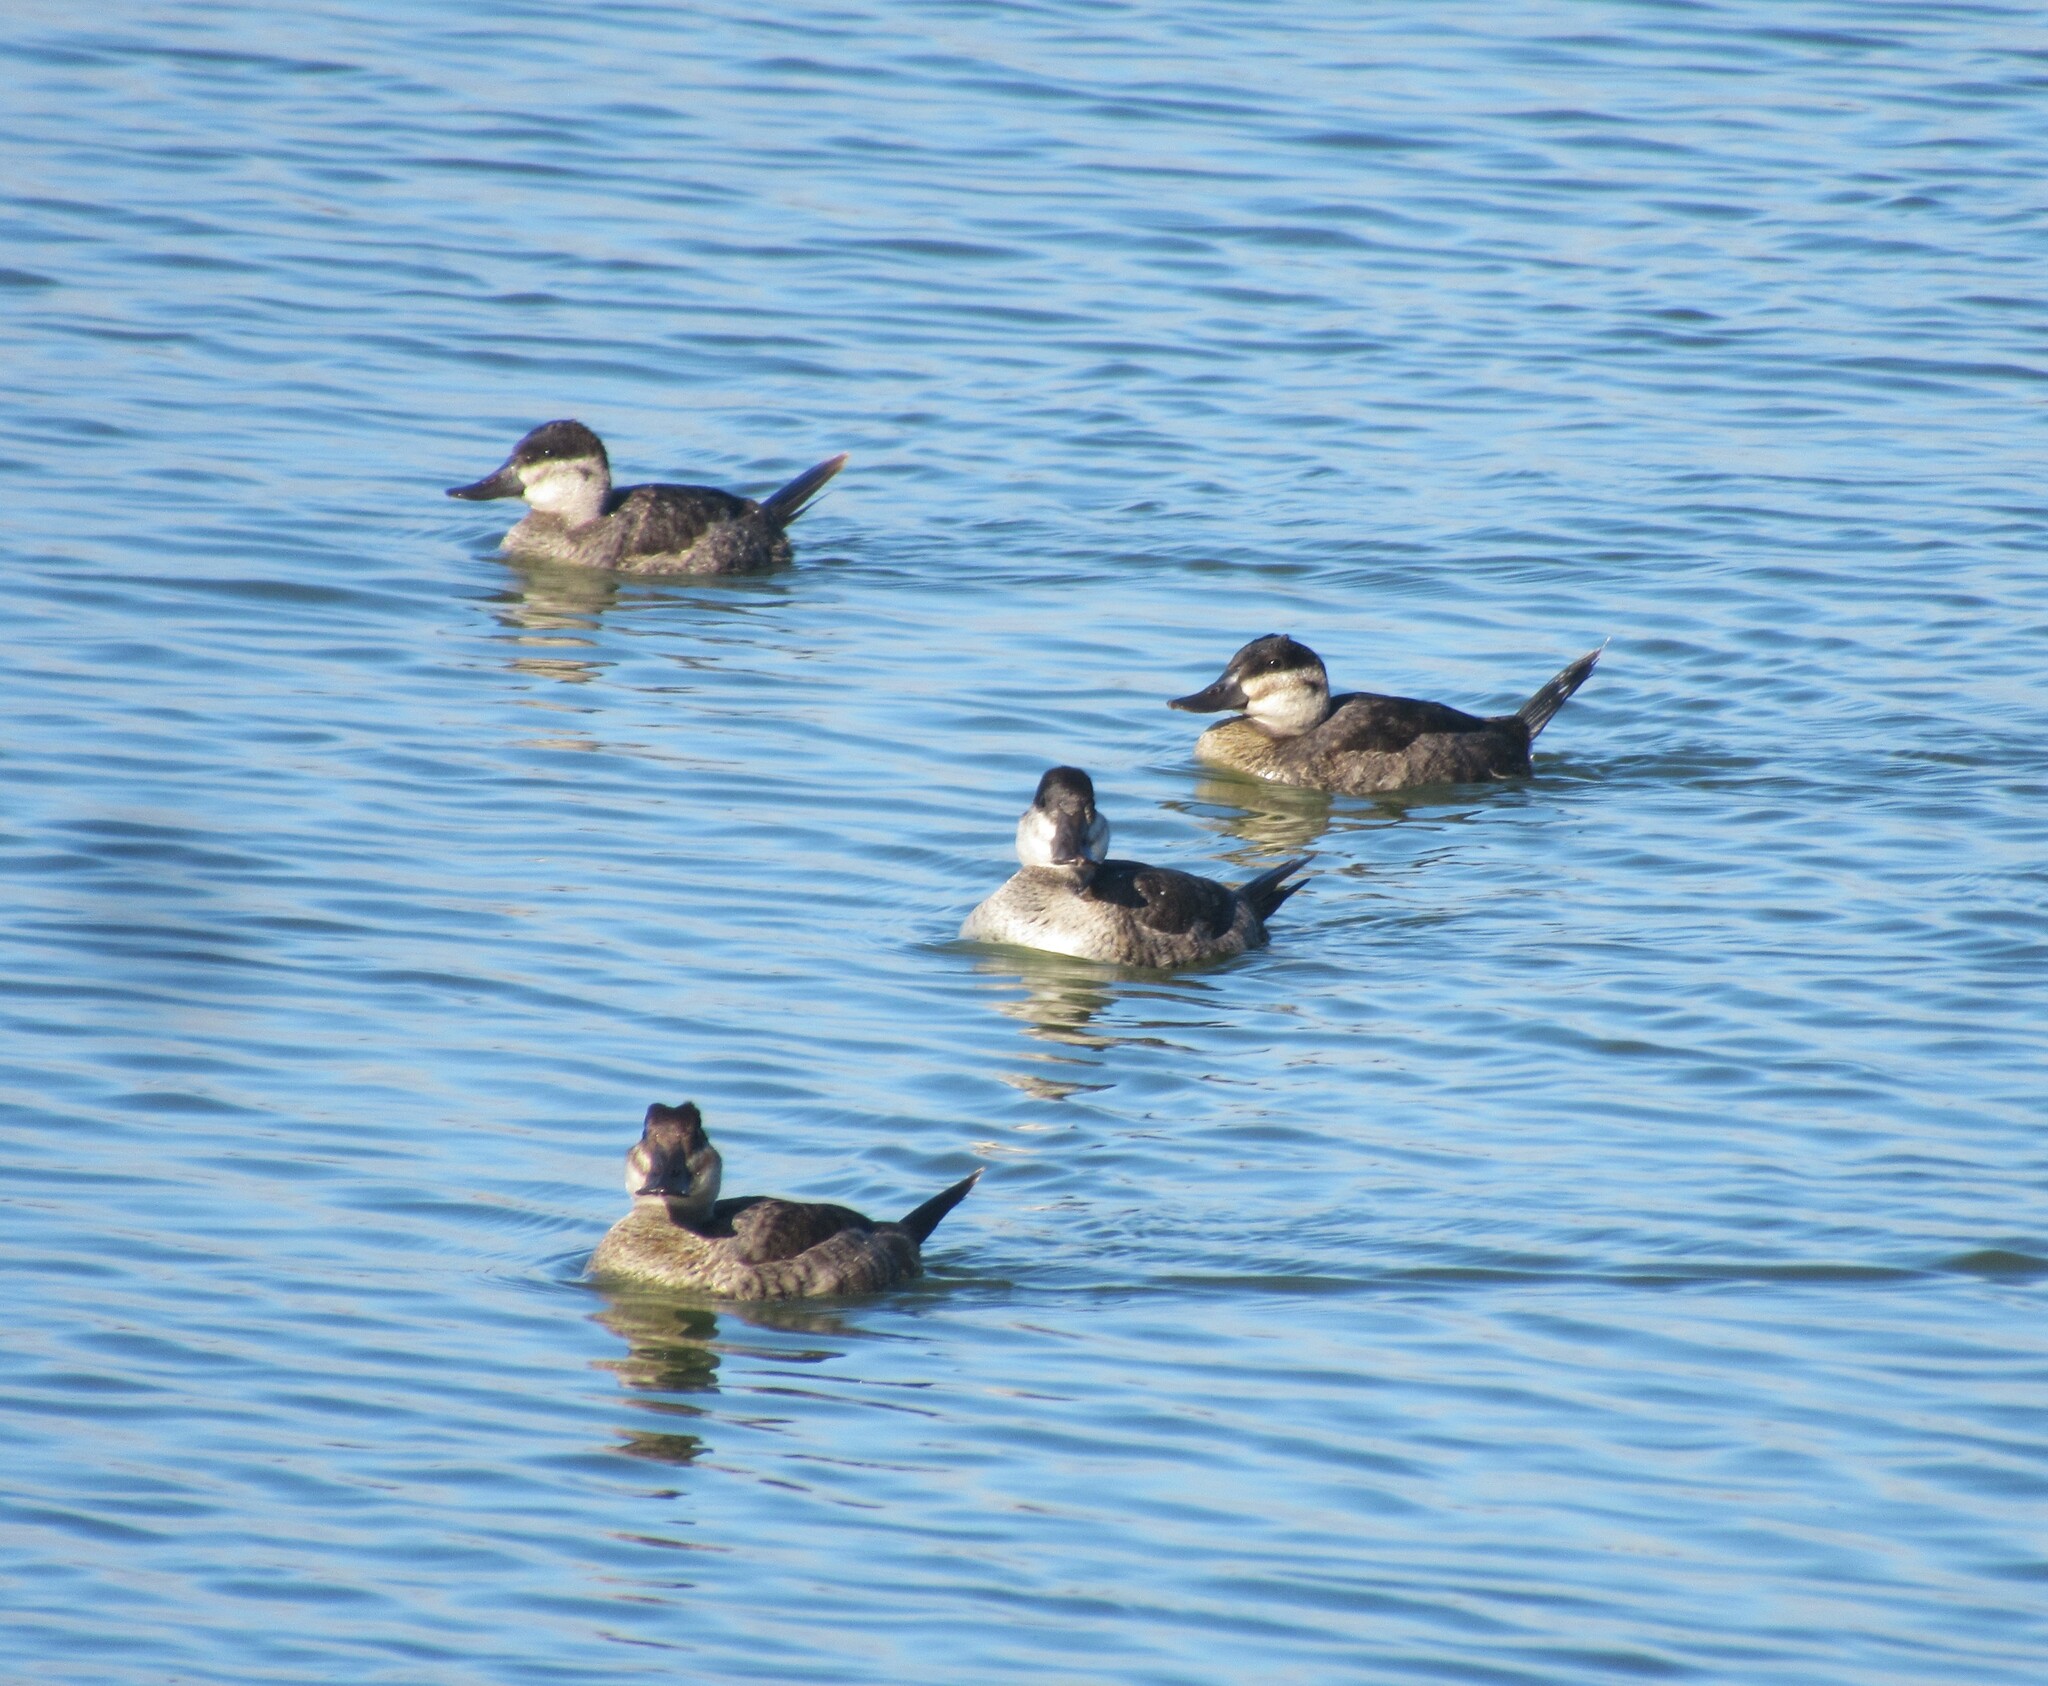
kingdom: Animalia
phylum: Chordata
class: Aves
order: Anseriformes
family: Anatidae
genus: Oxyura
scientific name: Oxyura jamaicensis
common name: Ruddy duck
